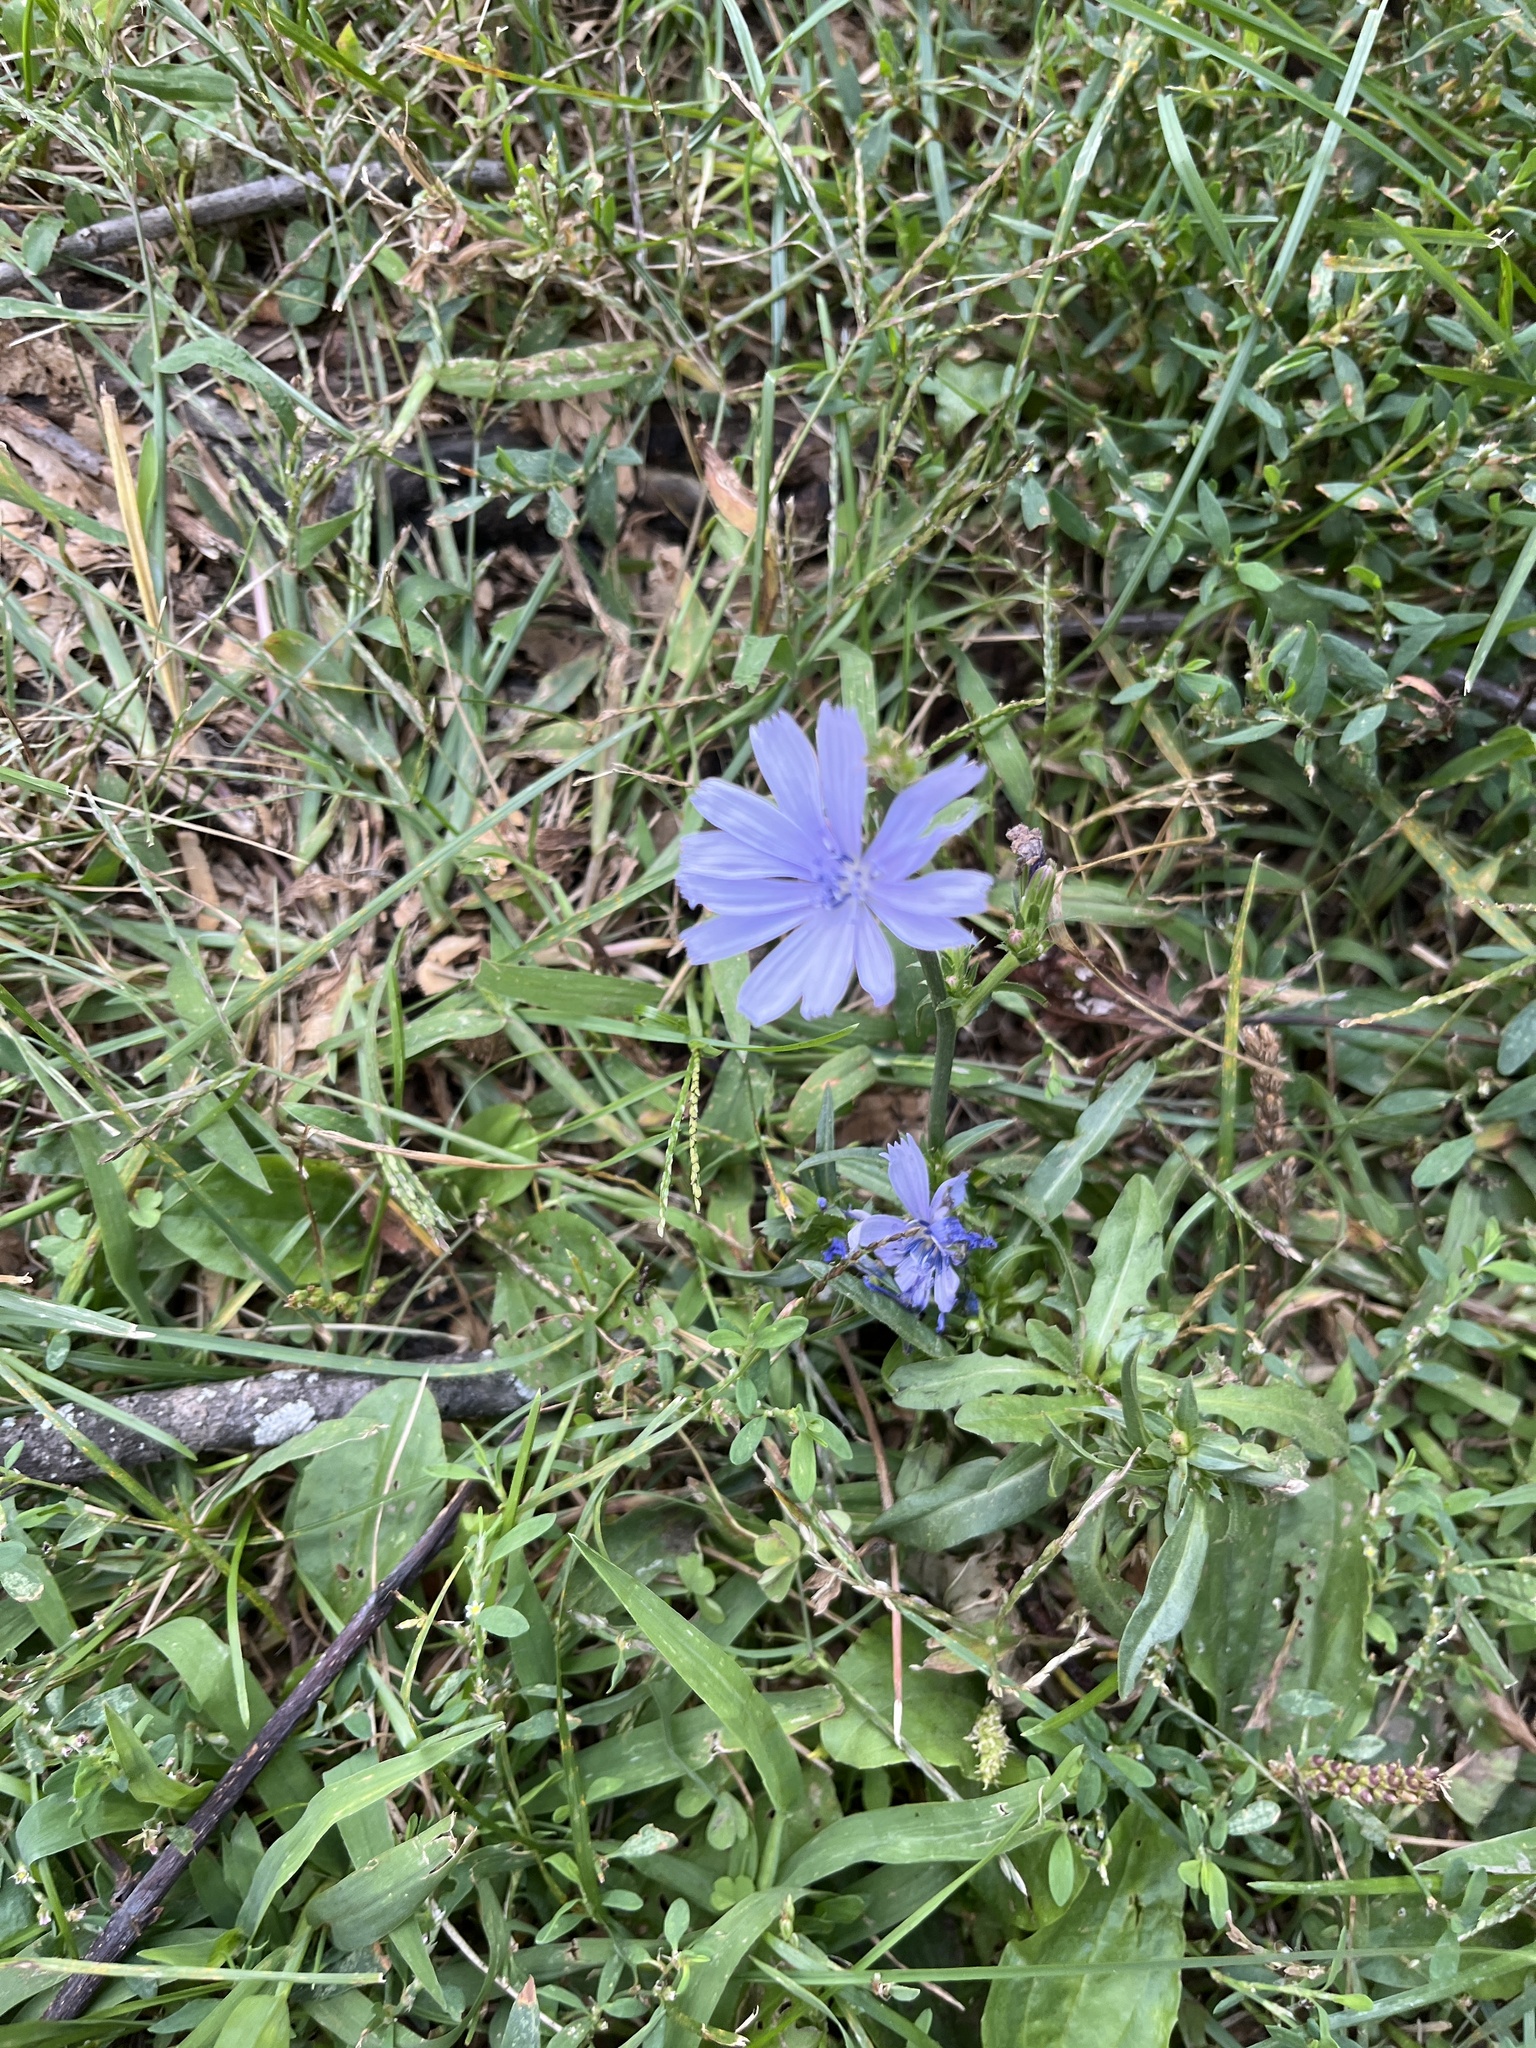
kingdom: Plantae
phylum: Tracheophyta
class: Magnoliopsida
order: Asterales
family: Asteraceae
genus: Cichorium
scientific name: Cichorium intybus
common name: Chicory
